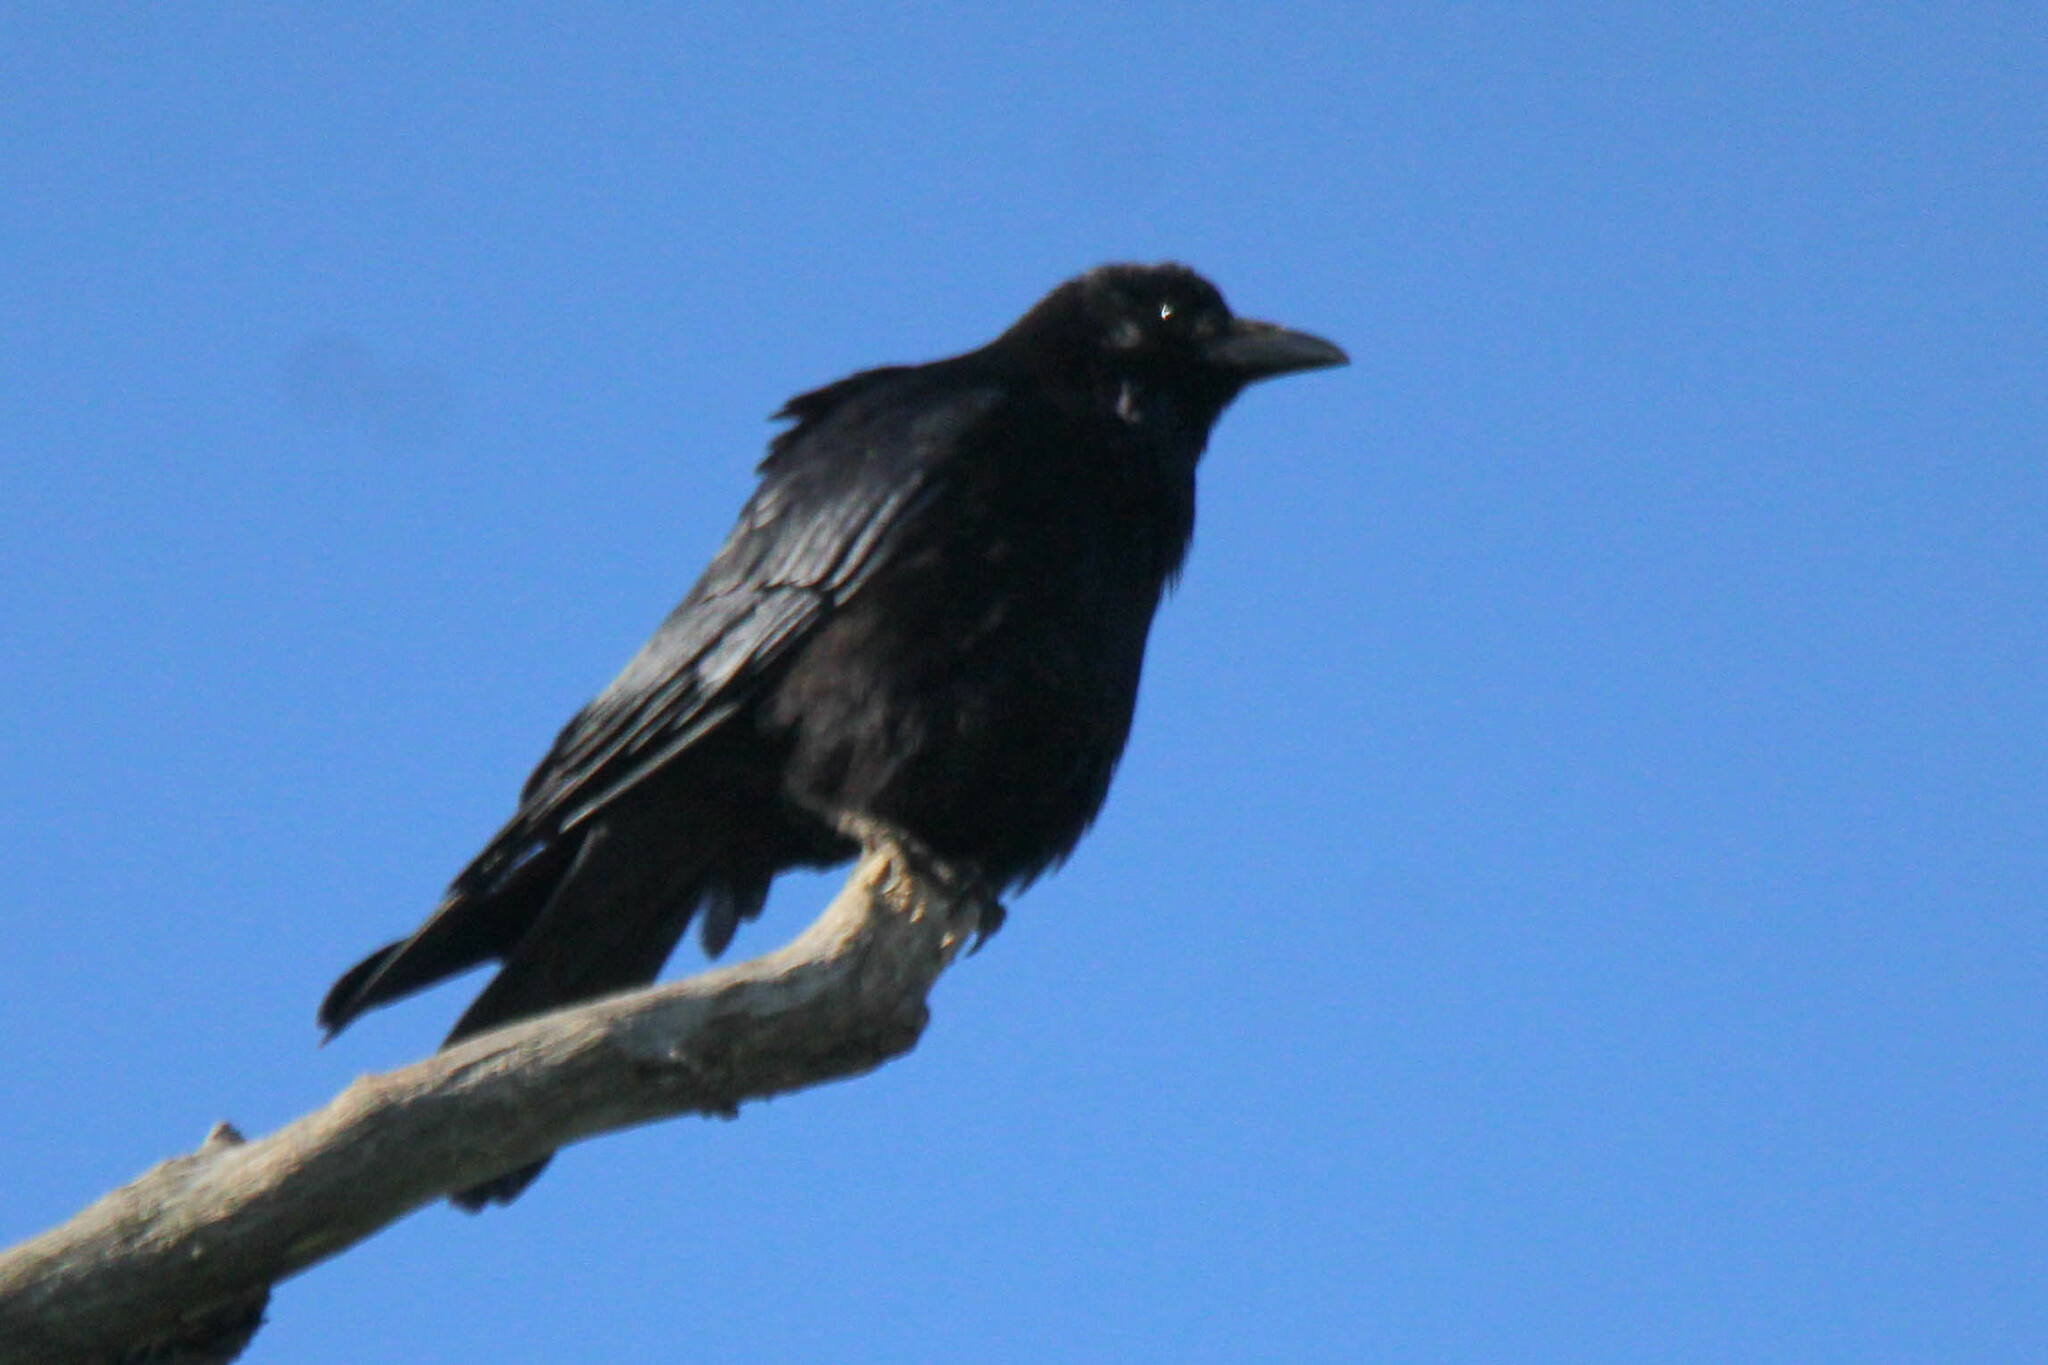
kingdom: Animalia
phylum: Chordata
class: Aves
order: Passeriformes
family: Corvidae
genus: Corvus
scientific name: Corvus corone
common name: Carrion crow
